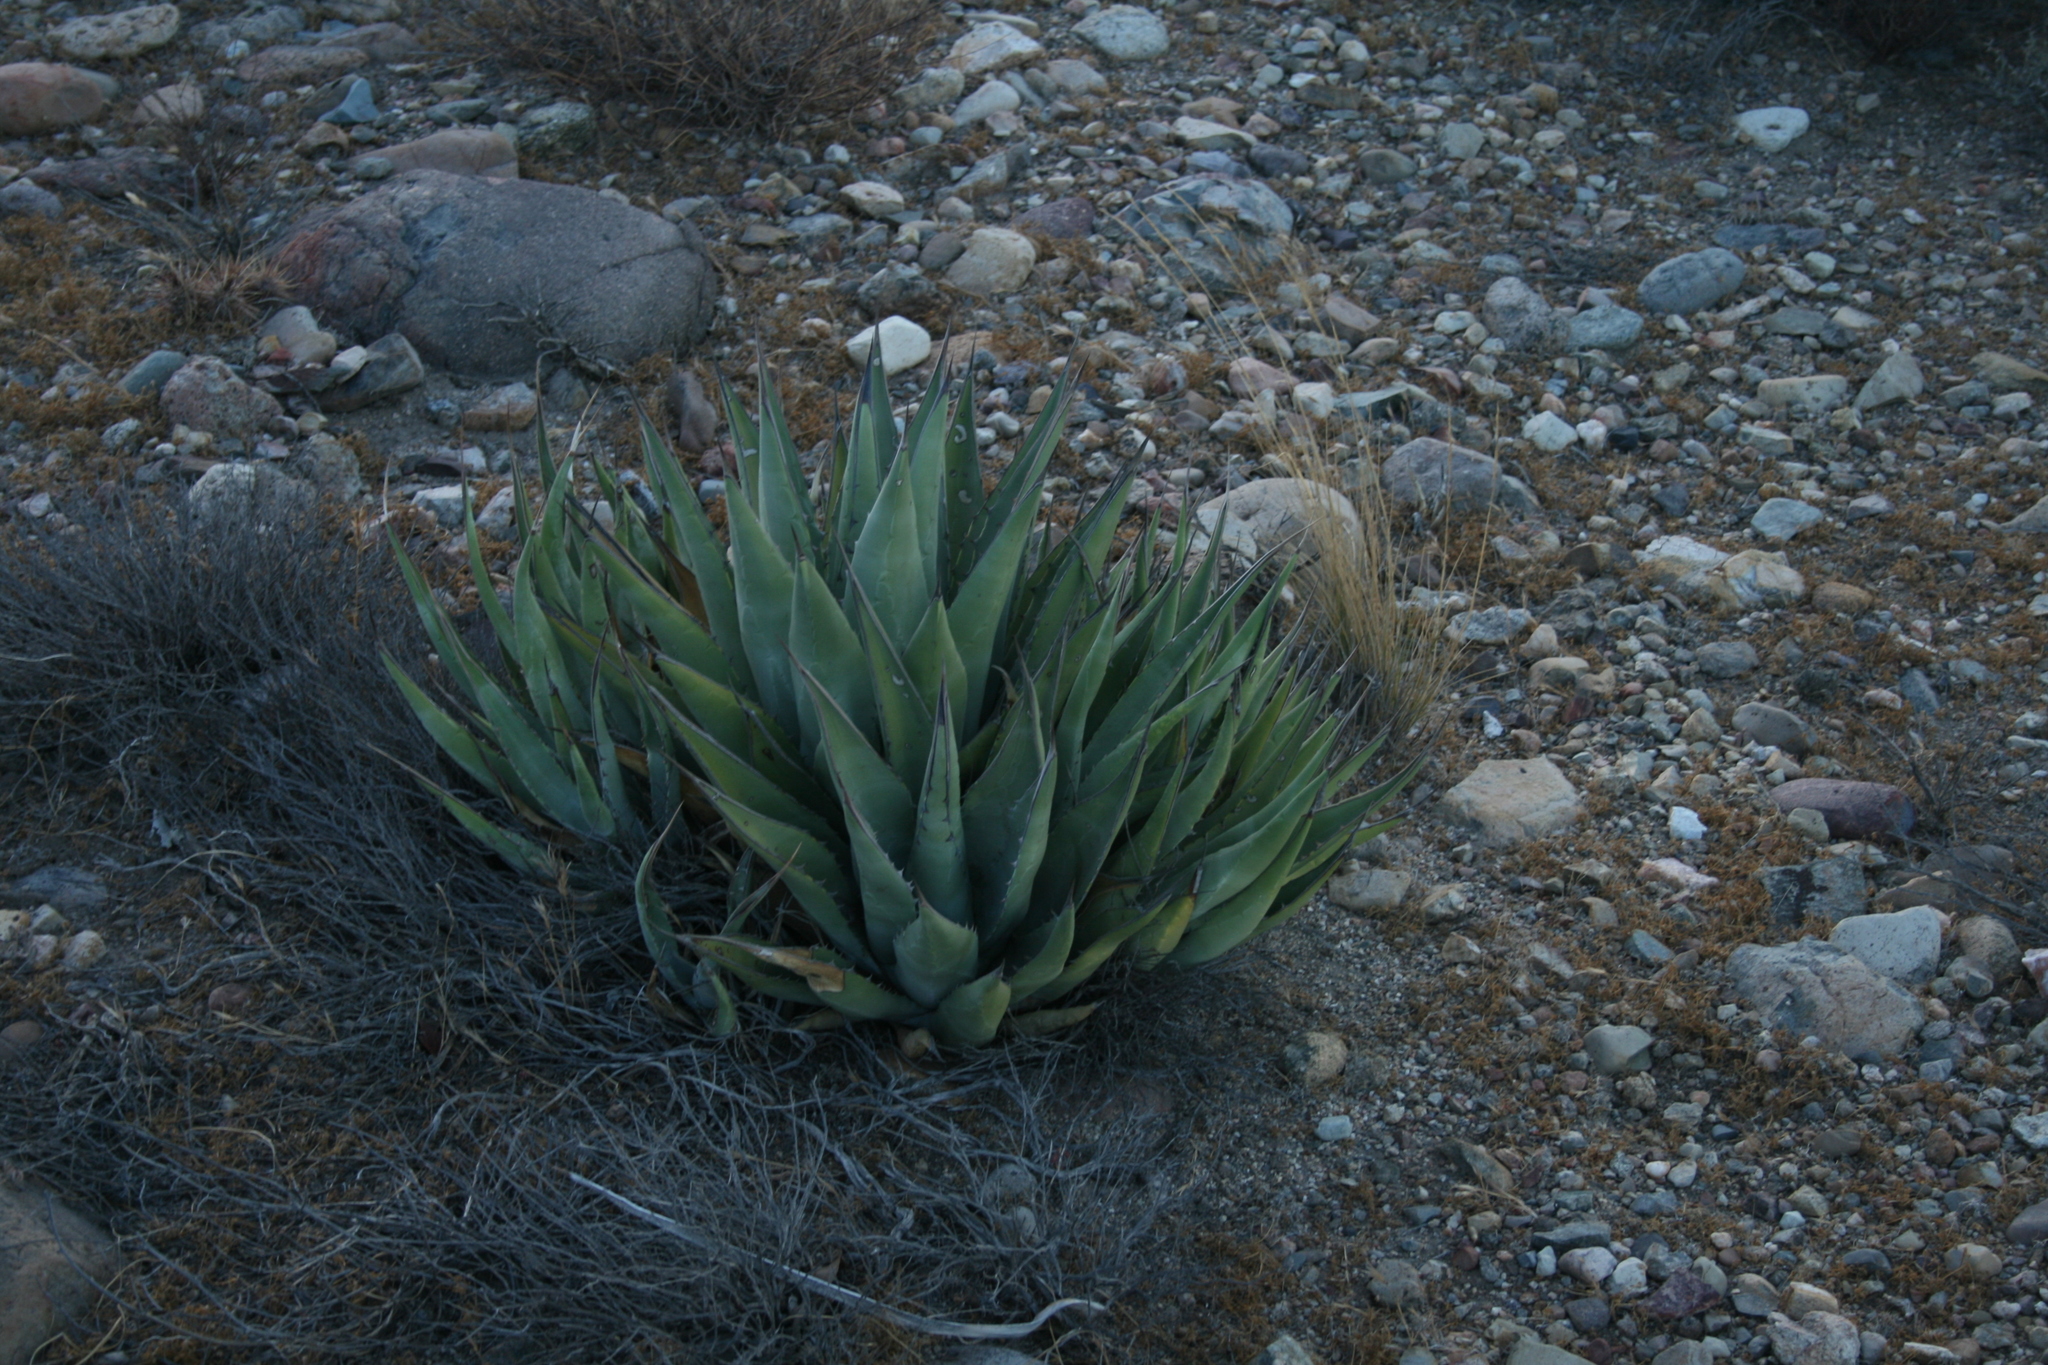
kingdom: Plantae
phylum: Tracheophyta
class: Liliopsida
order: Asparagales
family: Asparagaceae
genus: Agave
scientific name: Agave deserti
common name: Desert agave
